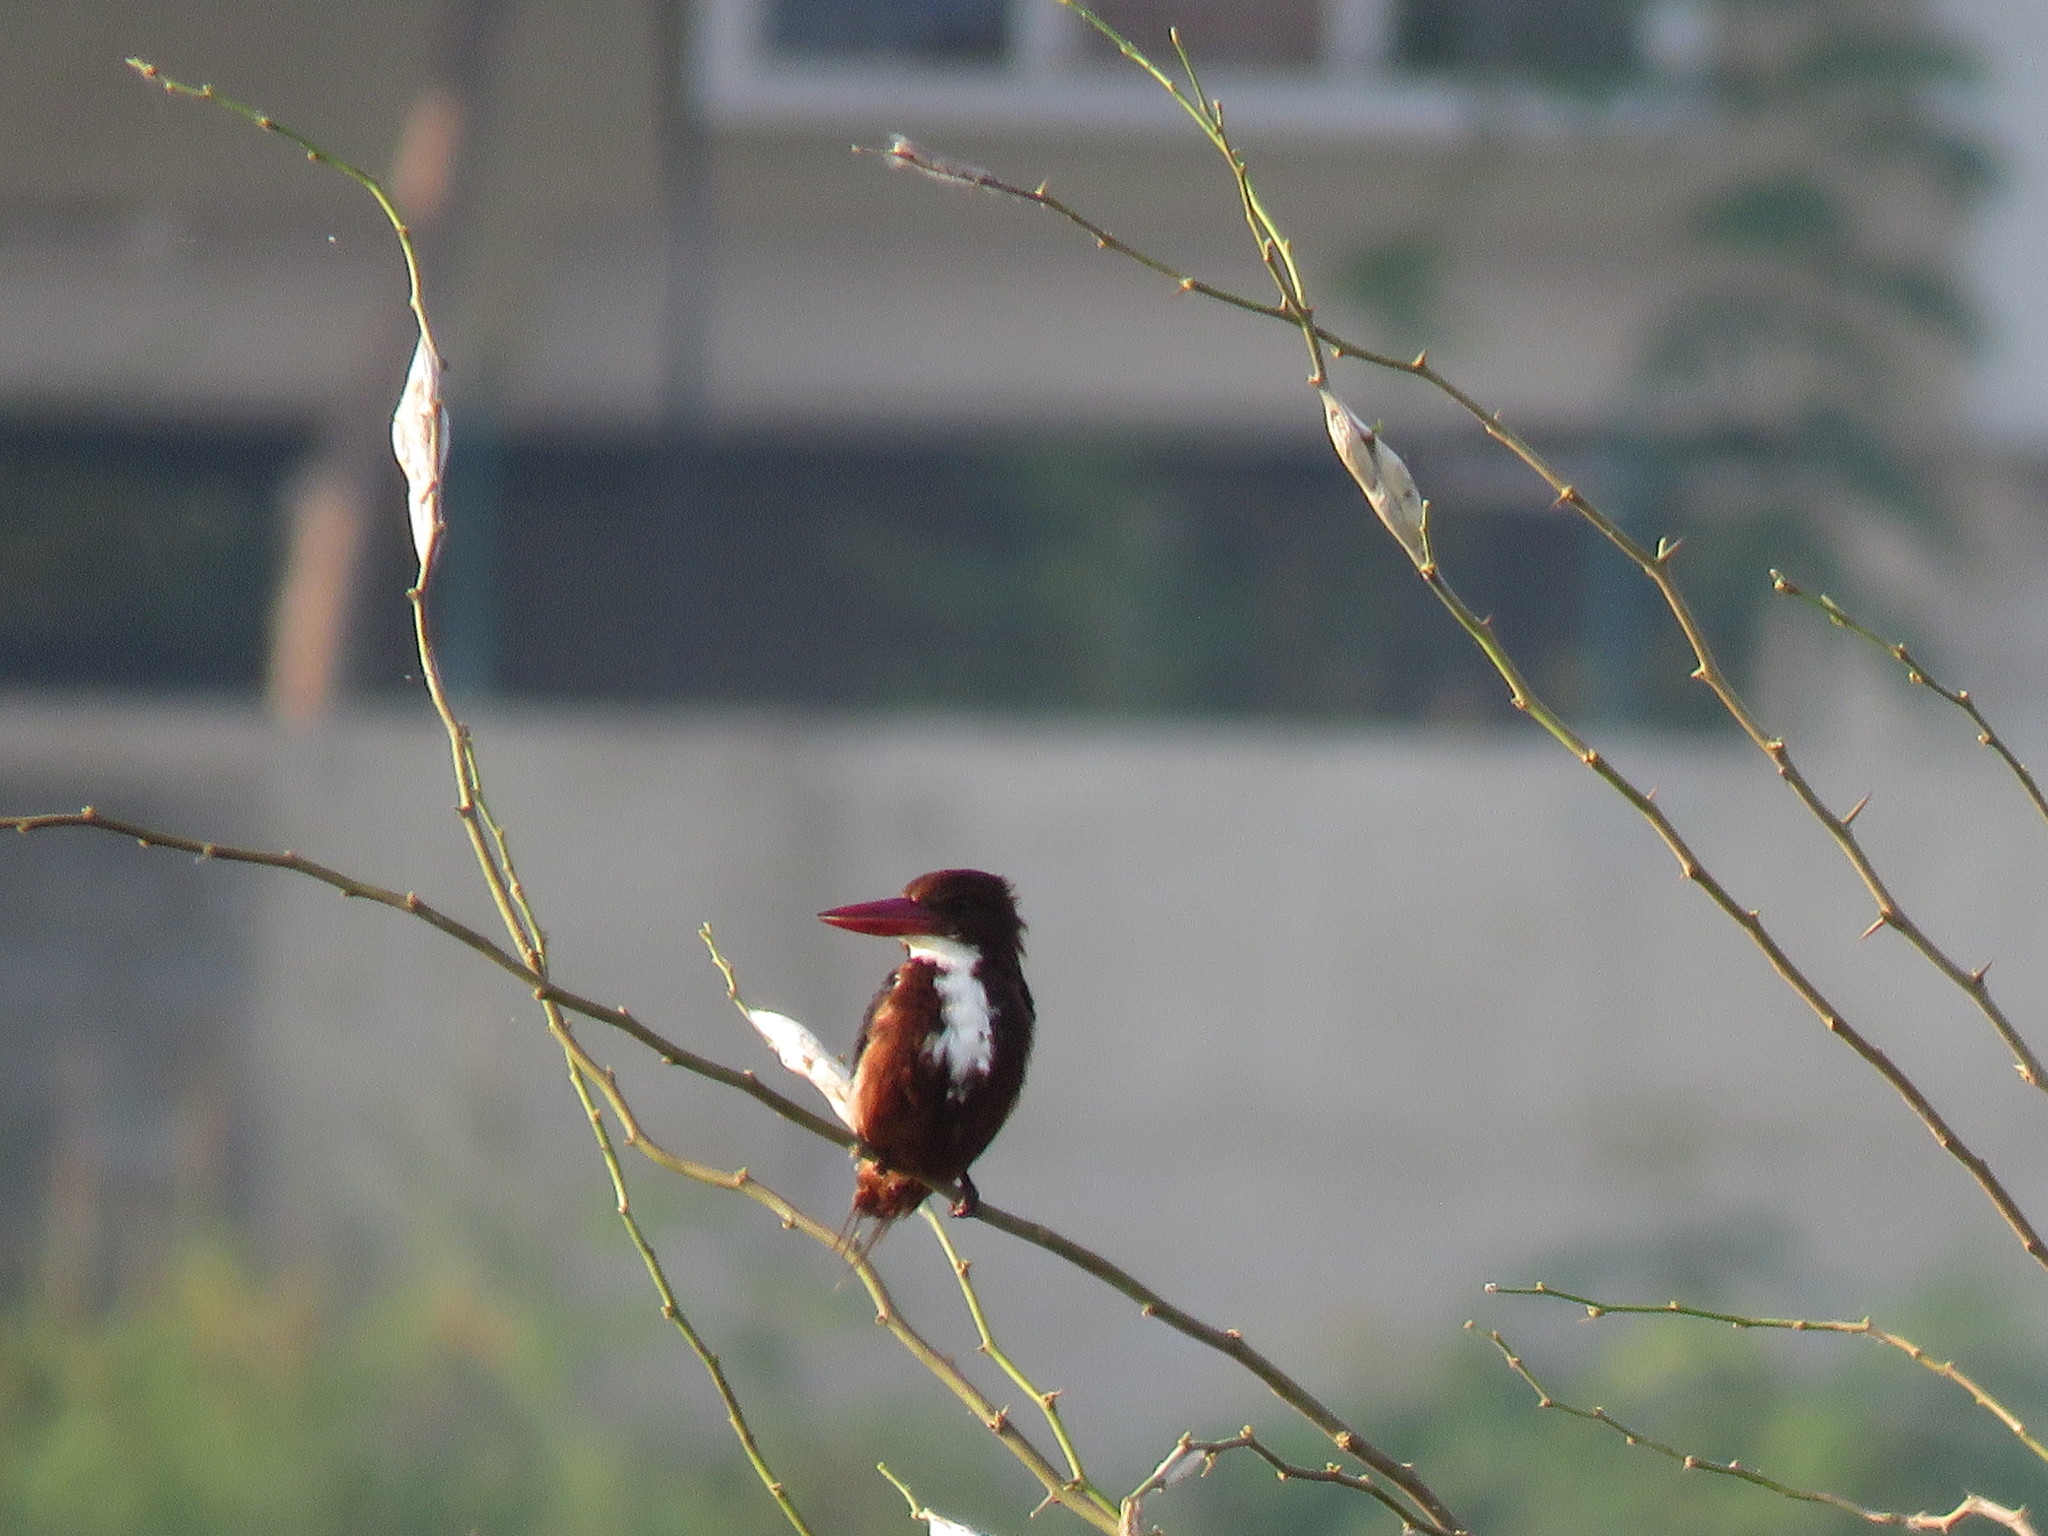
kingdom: Animalia
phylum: Chordata
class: Aves
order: Coraciiformes
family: Alcedinidae
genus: Halcyon
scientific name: Halcyon smyrnensis
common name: White-throated kingfisher
